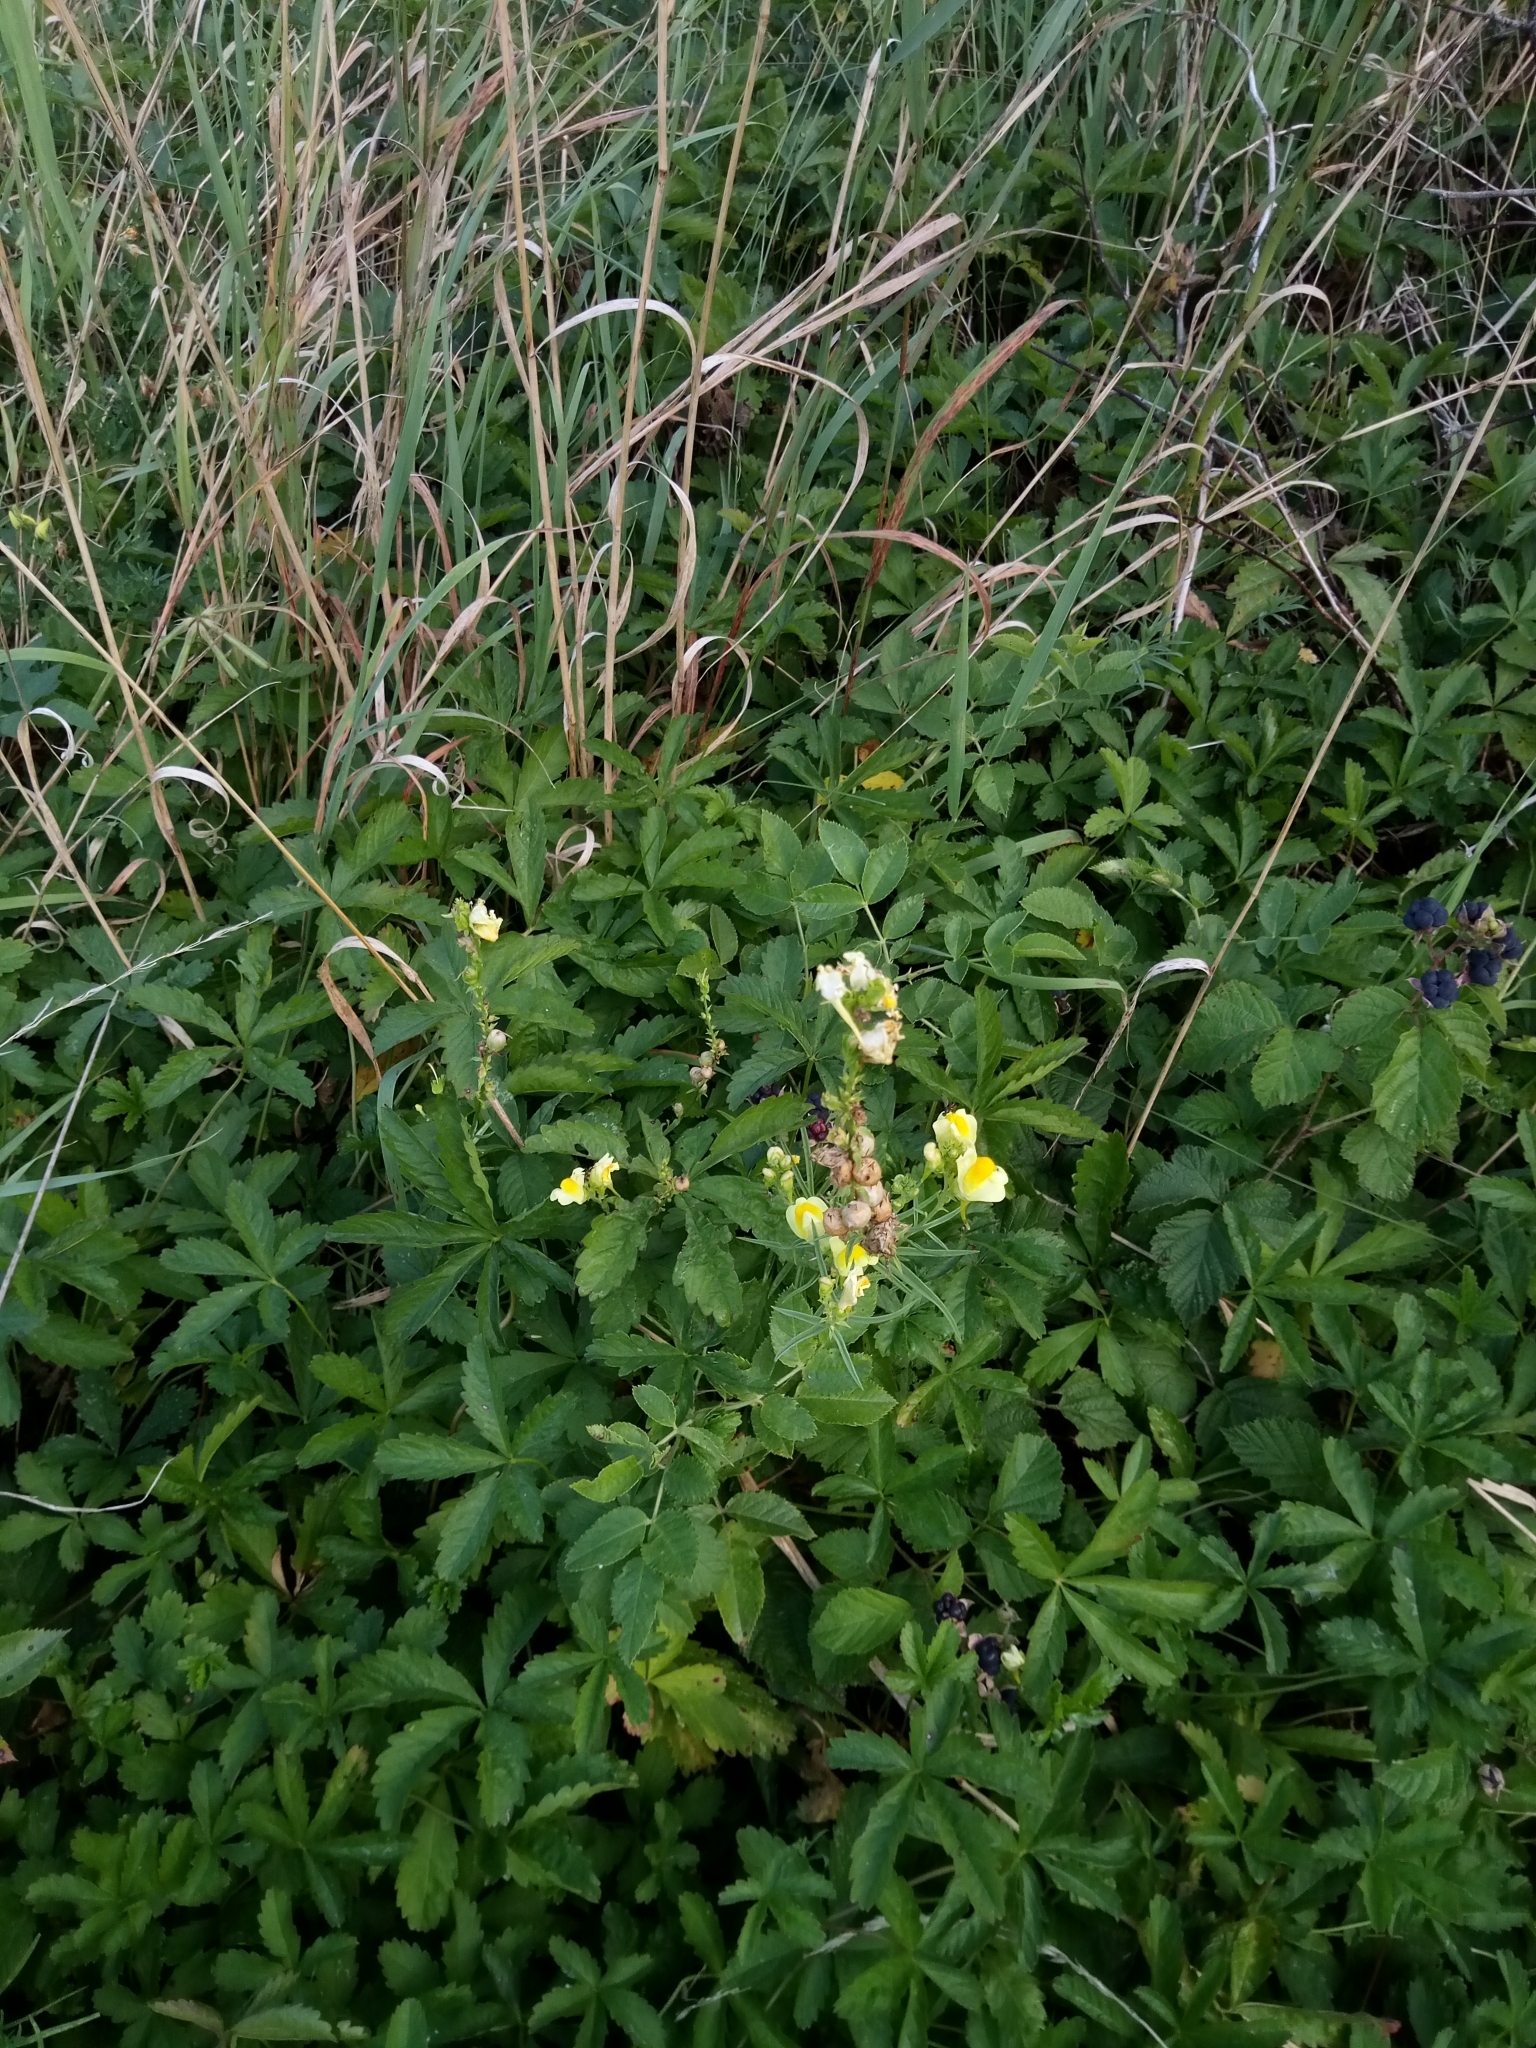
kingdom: Plantae
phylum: Tracheophyta
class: Magnoliopsida
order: Lamiales
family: Plantaginaceae
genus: Linaria
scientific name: Linaria vulgaris
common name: Butter and eggs
